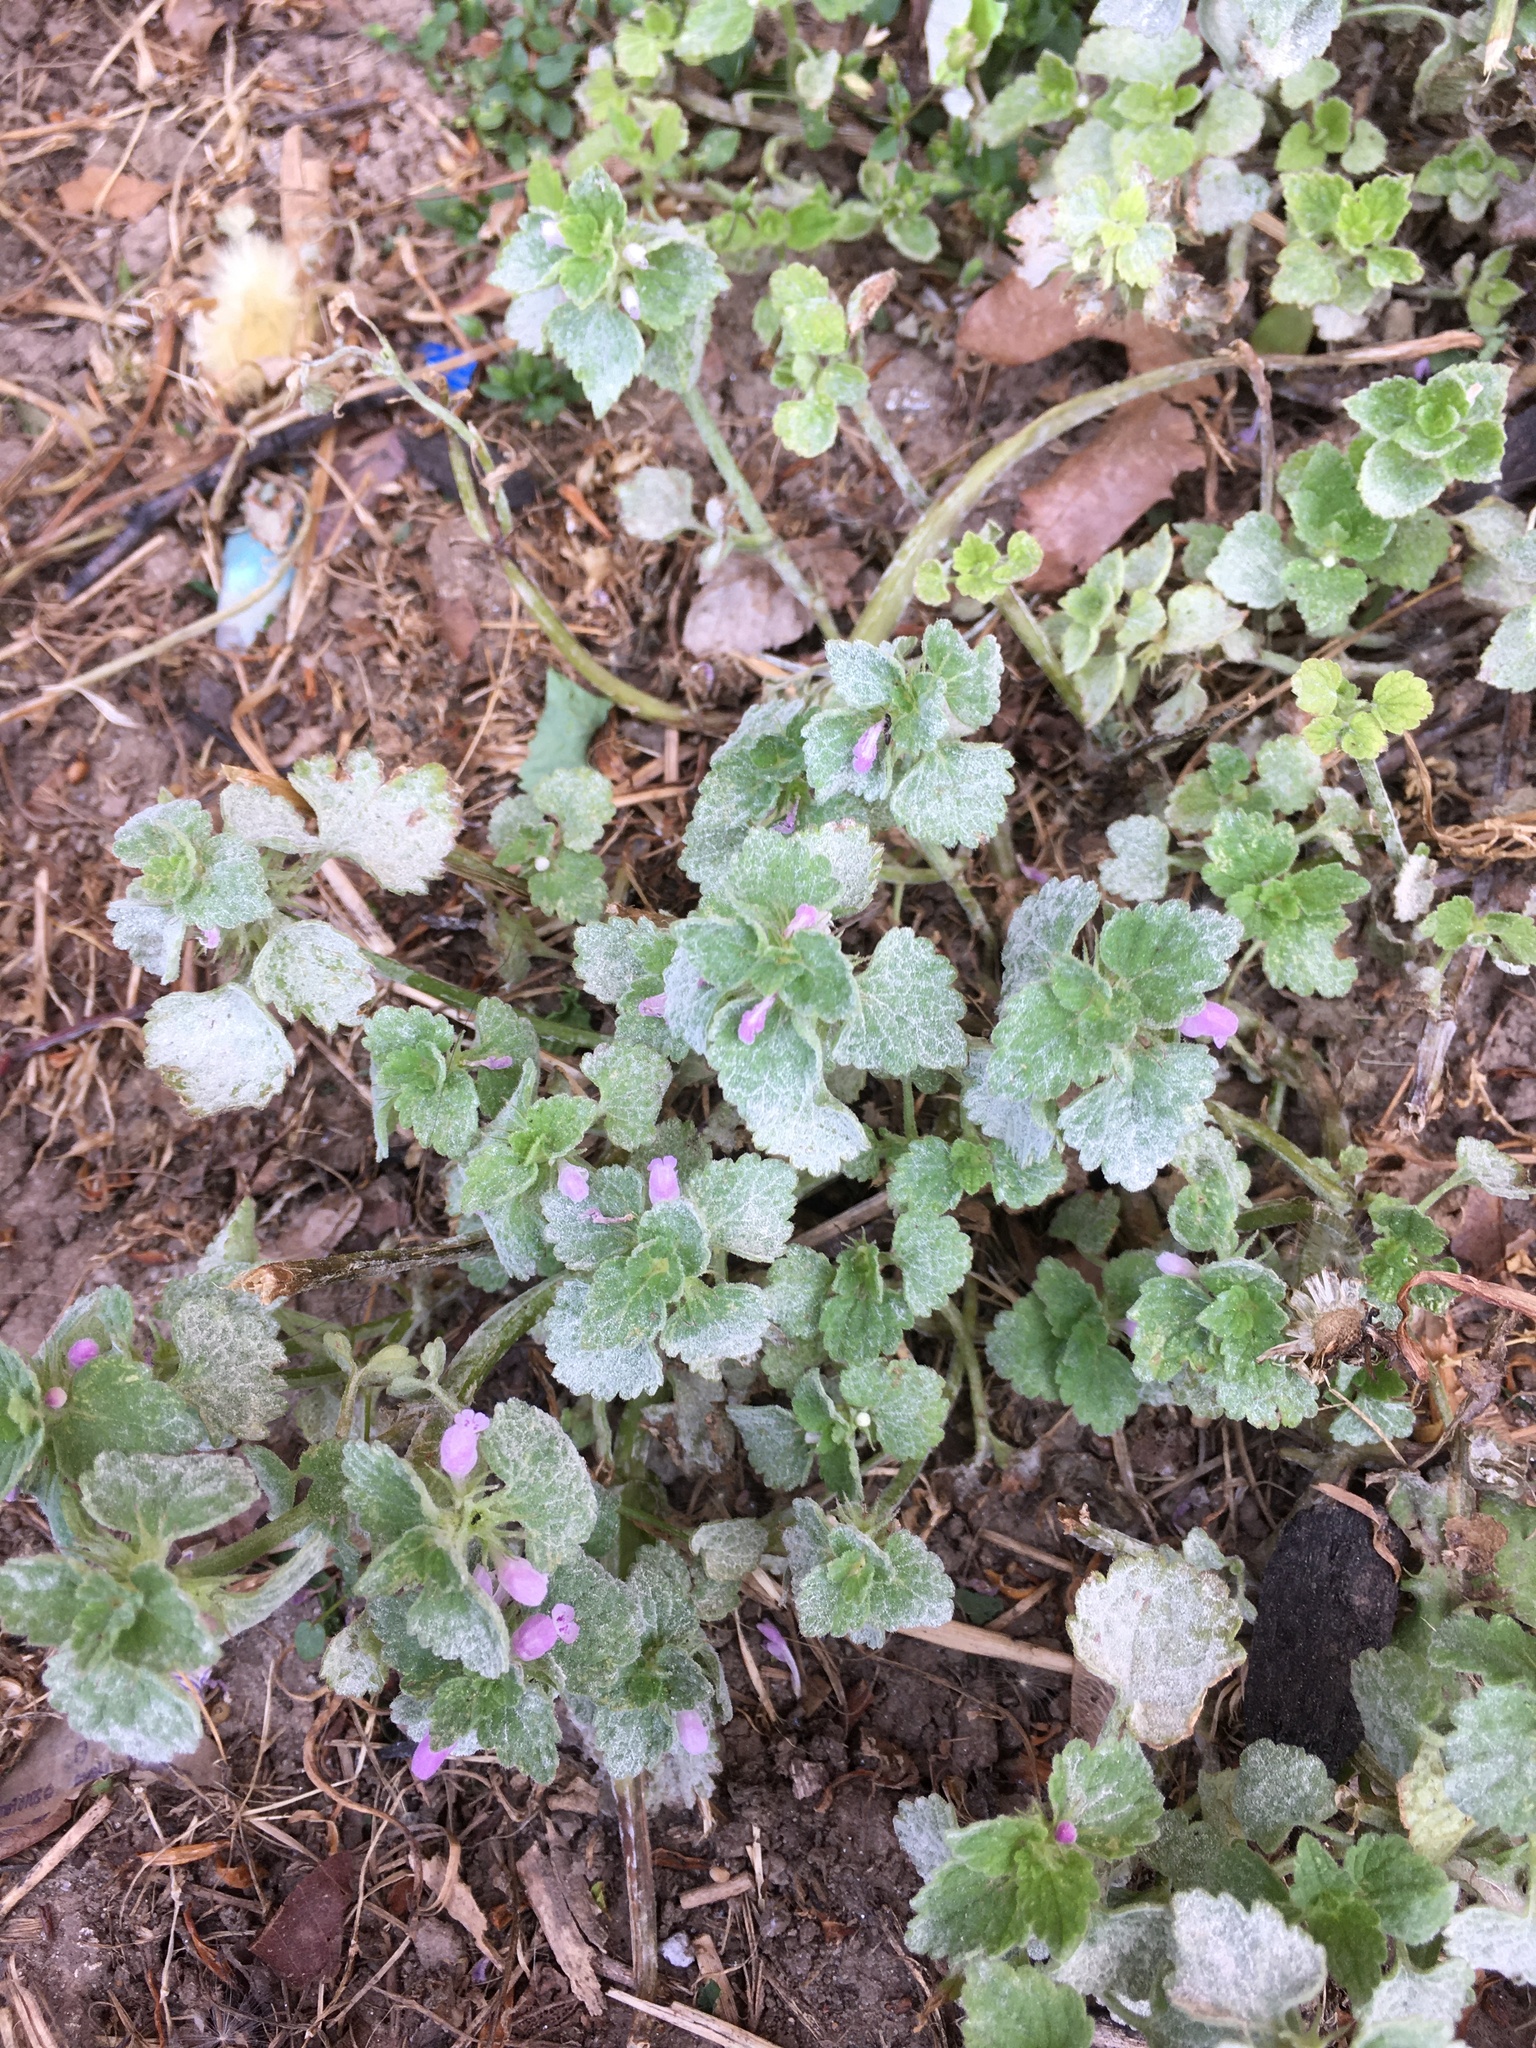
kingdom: Plantae
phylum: Tracheophyta
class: Magnoliopsida
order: Lamiales
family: Lamiaceae
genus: Lamium
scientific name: Lamium purpureum
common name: Red dead-nettle
